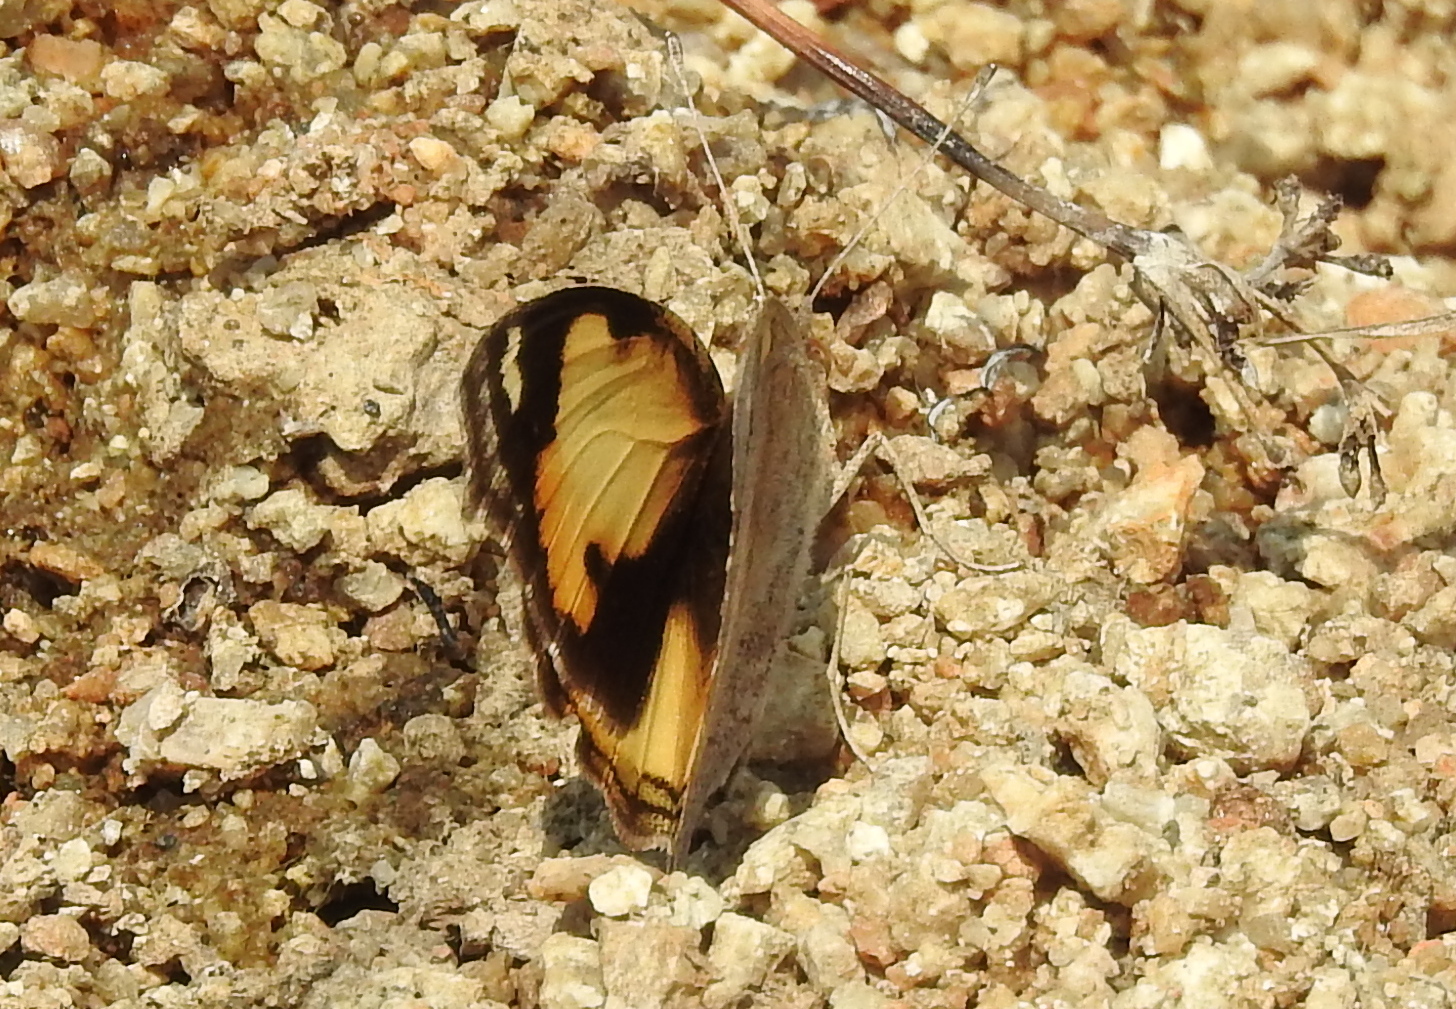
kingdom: Animalia
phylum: Arthropoda
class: Insecta
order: Lepidoptera
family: Nymphalidae
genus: Junonia
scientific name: Junonia hierta
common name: Yellow pansy
